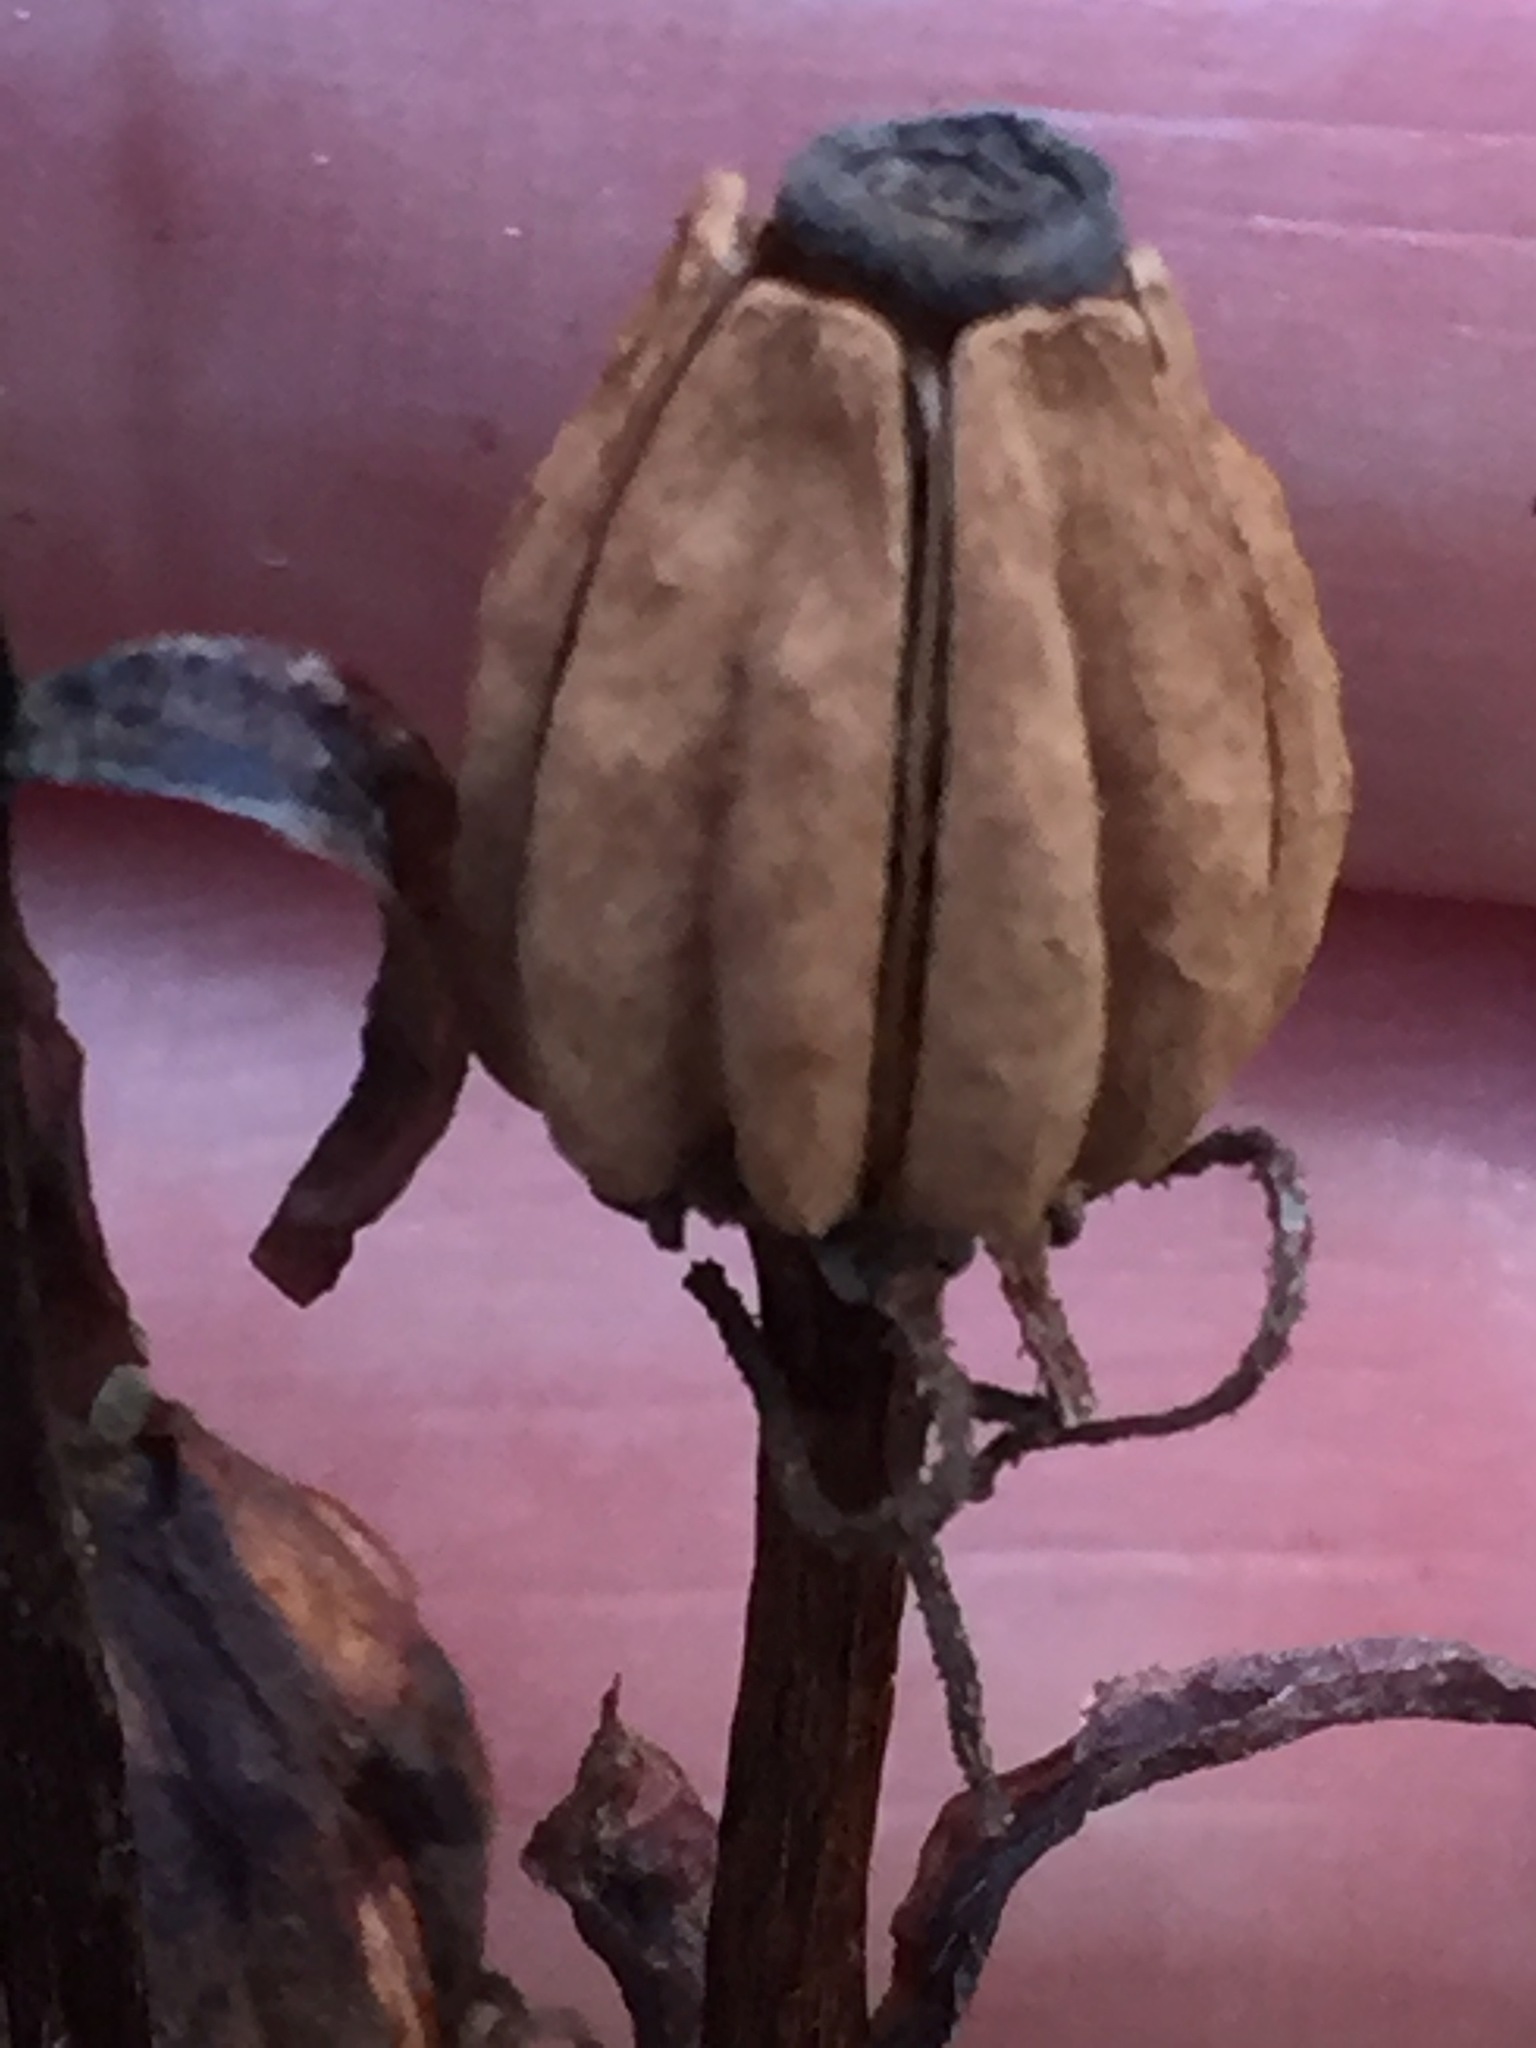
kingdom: Plantae
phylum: Tracheophyta
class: Magnoliopsida
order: Ericales
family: Ericaceae
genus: Monotropa
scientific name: Monotropa uniflora
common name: Convulsion root
